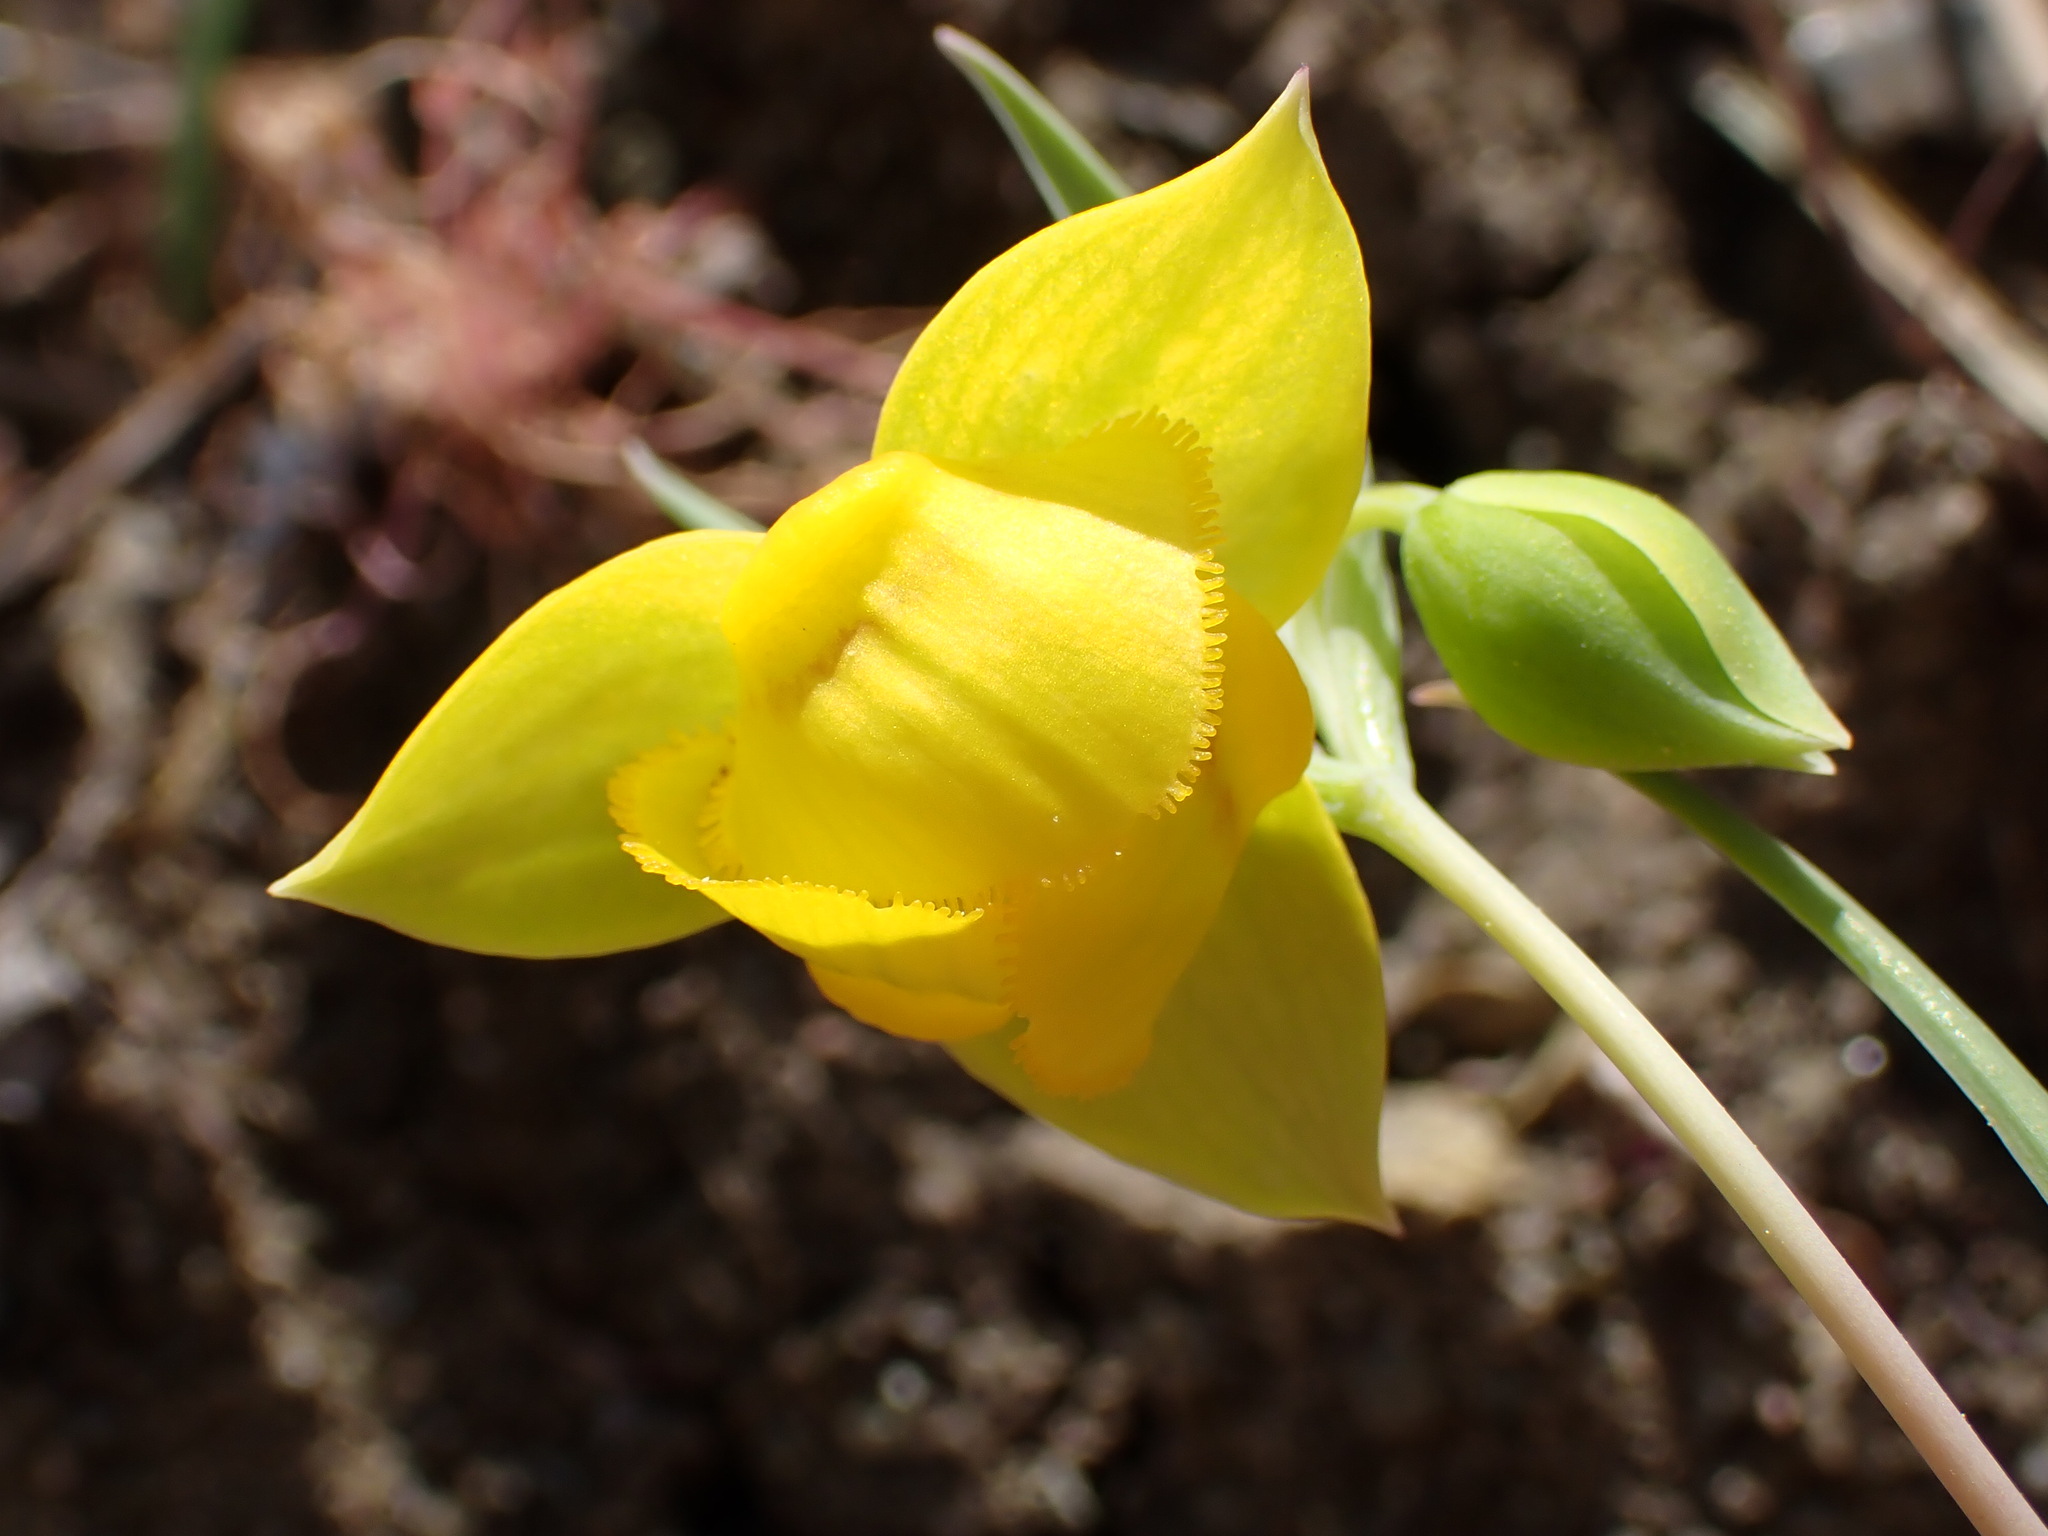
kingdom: Plantae
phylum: Tracheophyta
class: Liliopsida
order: Liliales
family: Liliaceae
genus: Calochortus
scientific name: Calochortus amabilis
